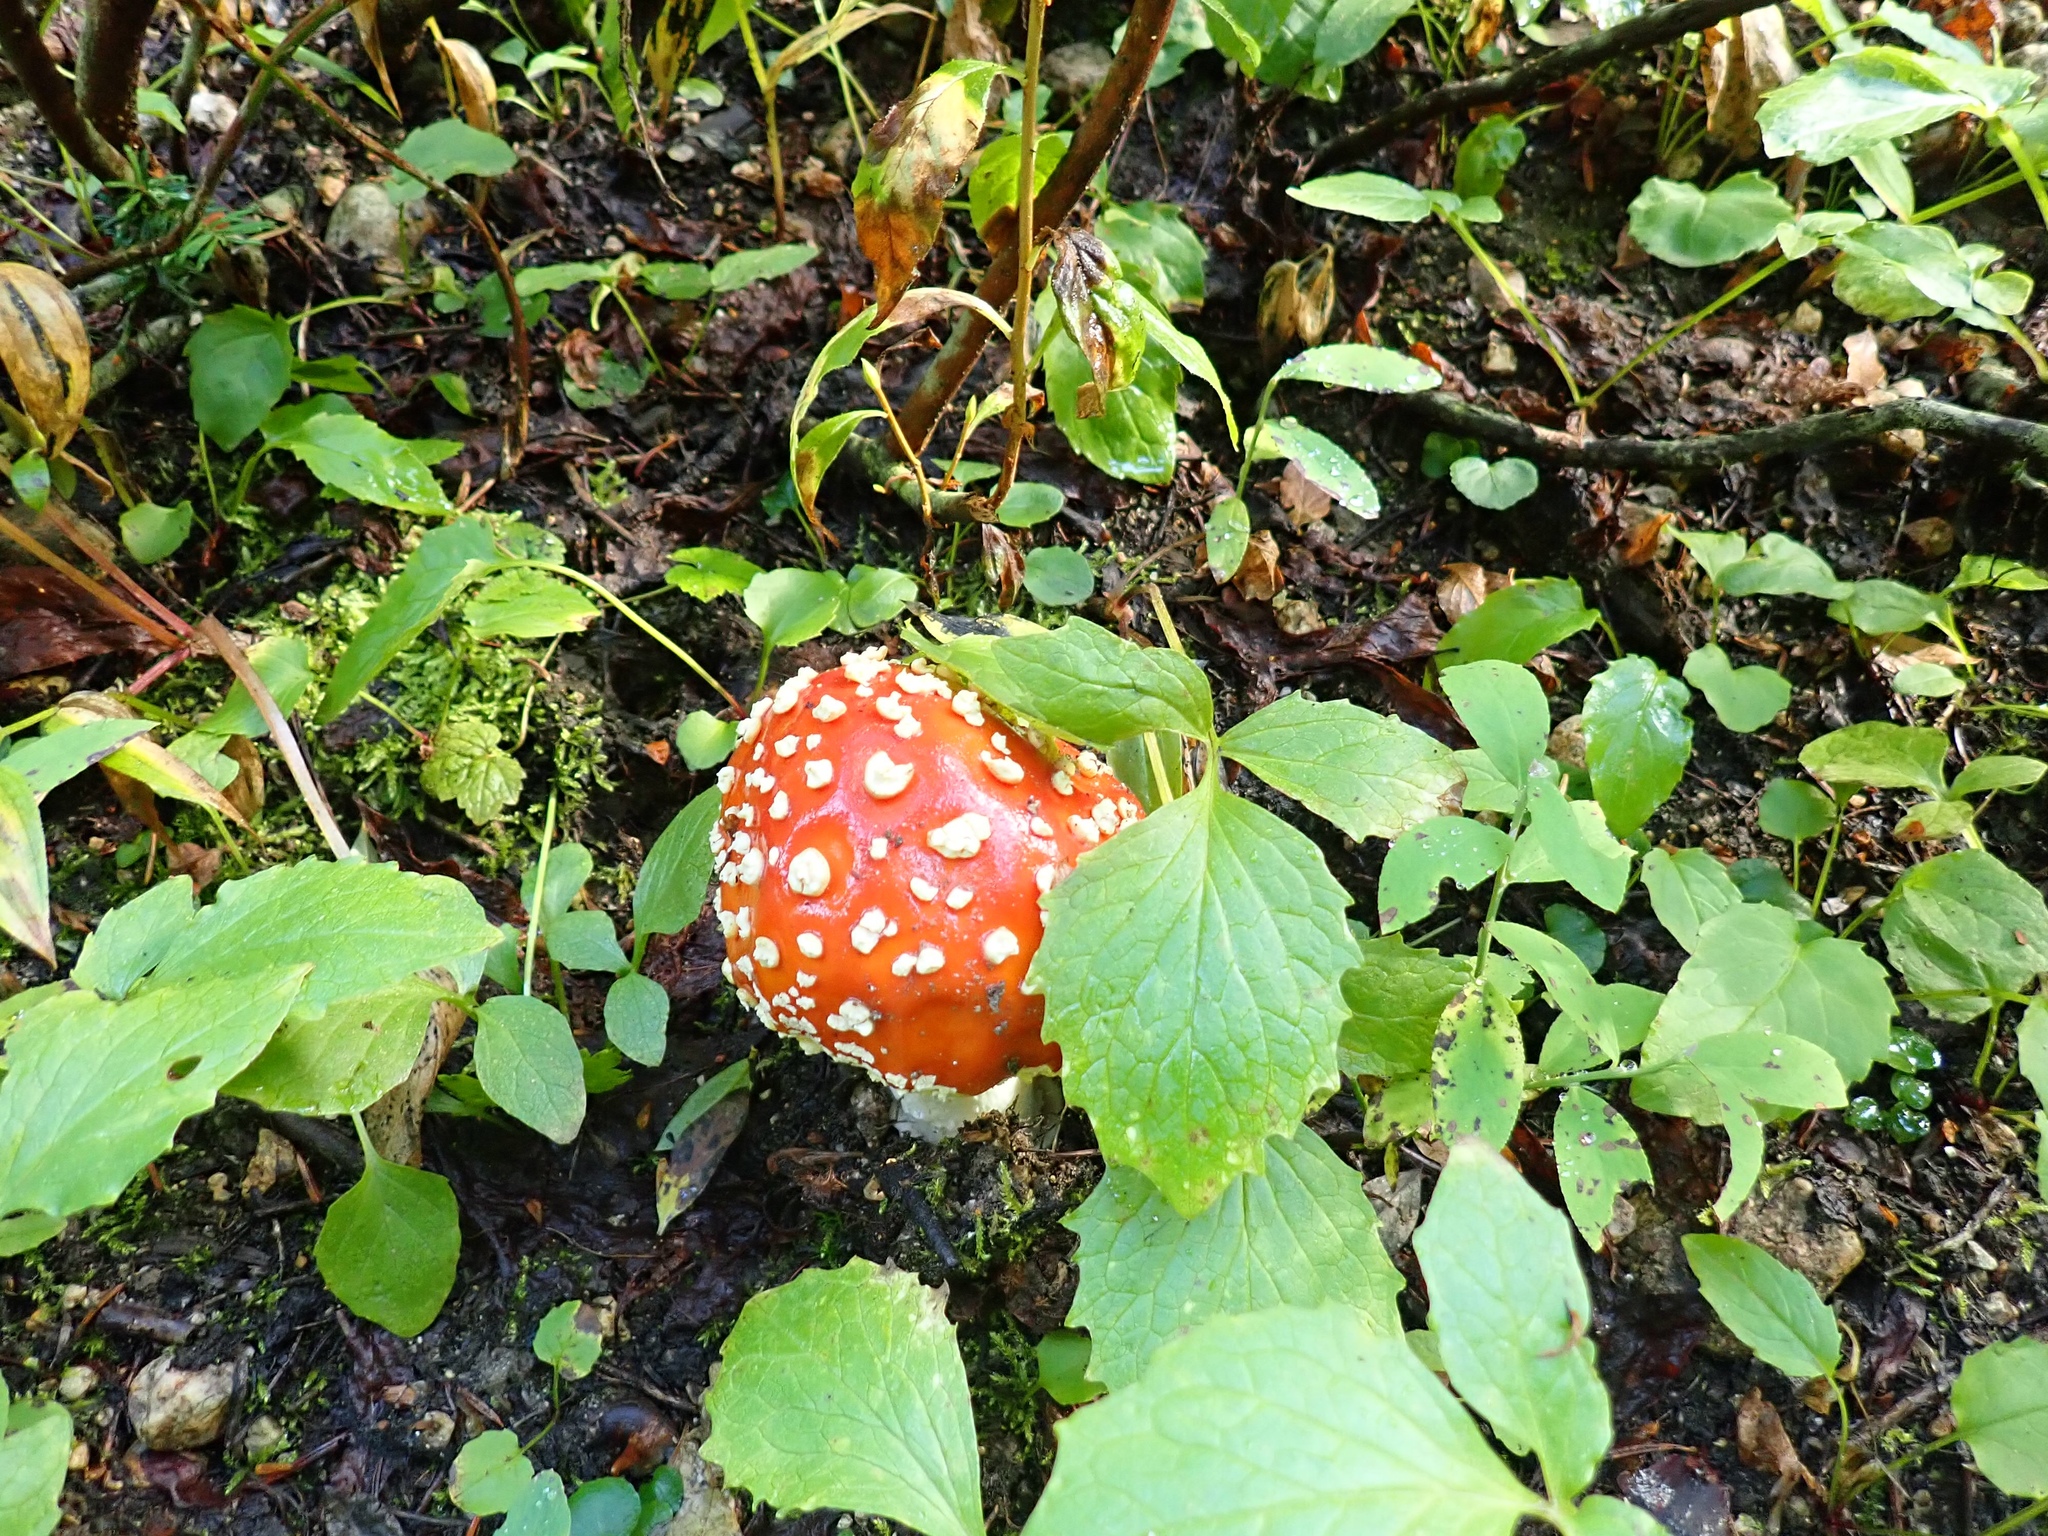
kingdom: Fungi
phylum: Basidiomycota
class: Agaricomycetes
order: Agaricales
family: Amanitaceae
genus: Amanita
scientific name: Amanita muscaria
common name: Fly agaric
